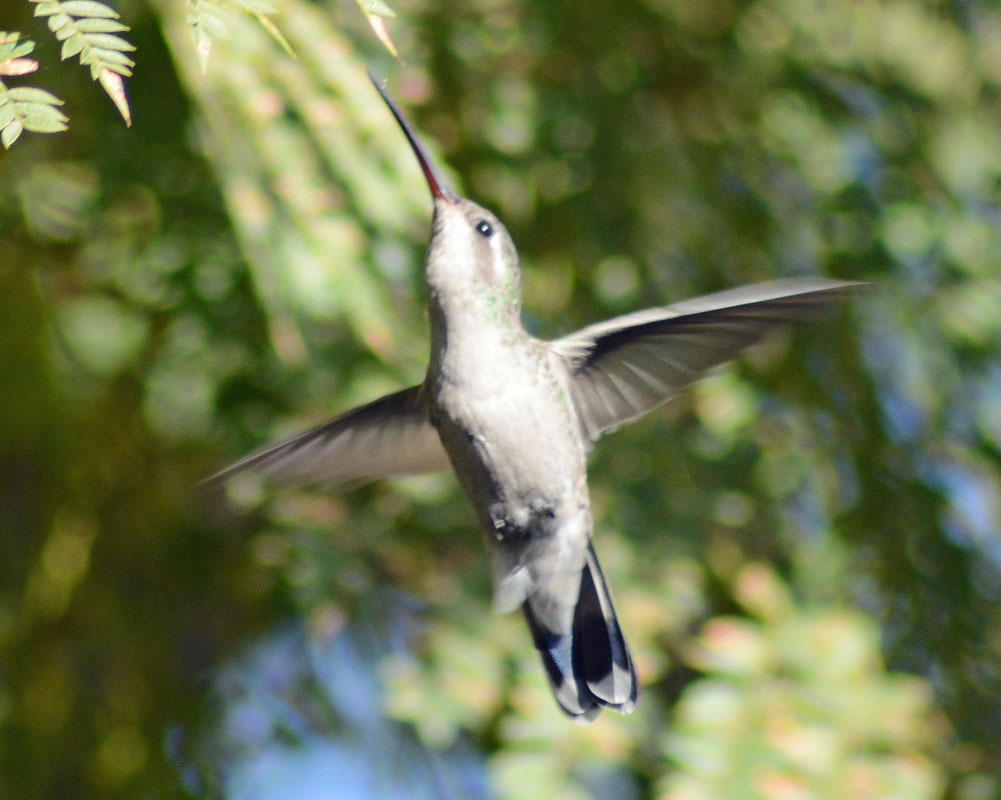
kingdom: Animalia
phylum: Chordata
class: Aves
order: Apodiformes
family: Trochilidae
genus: Cynanthus
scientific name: Cynanthus latirostris
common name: Broad-billed hummingbird
